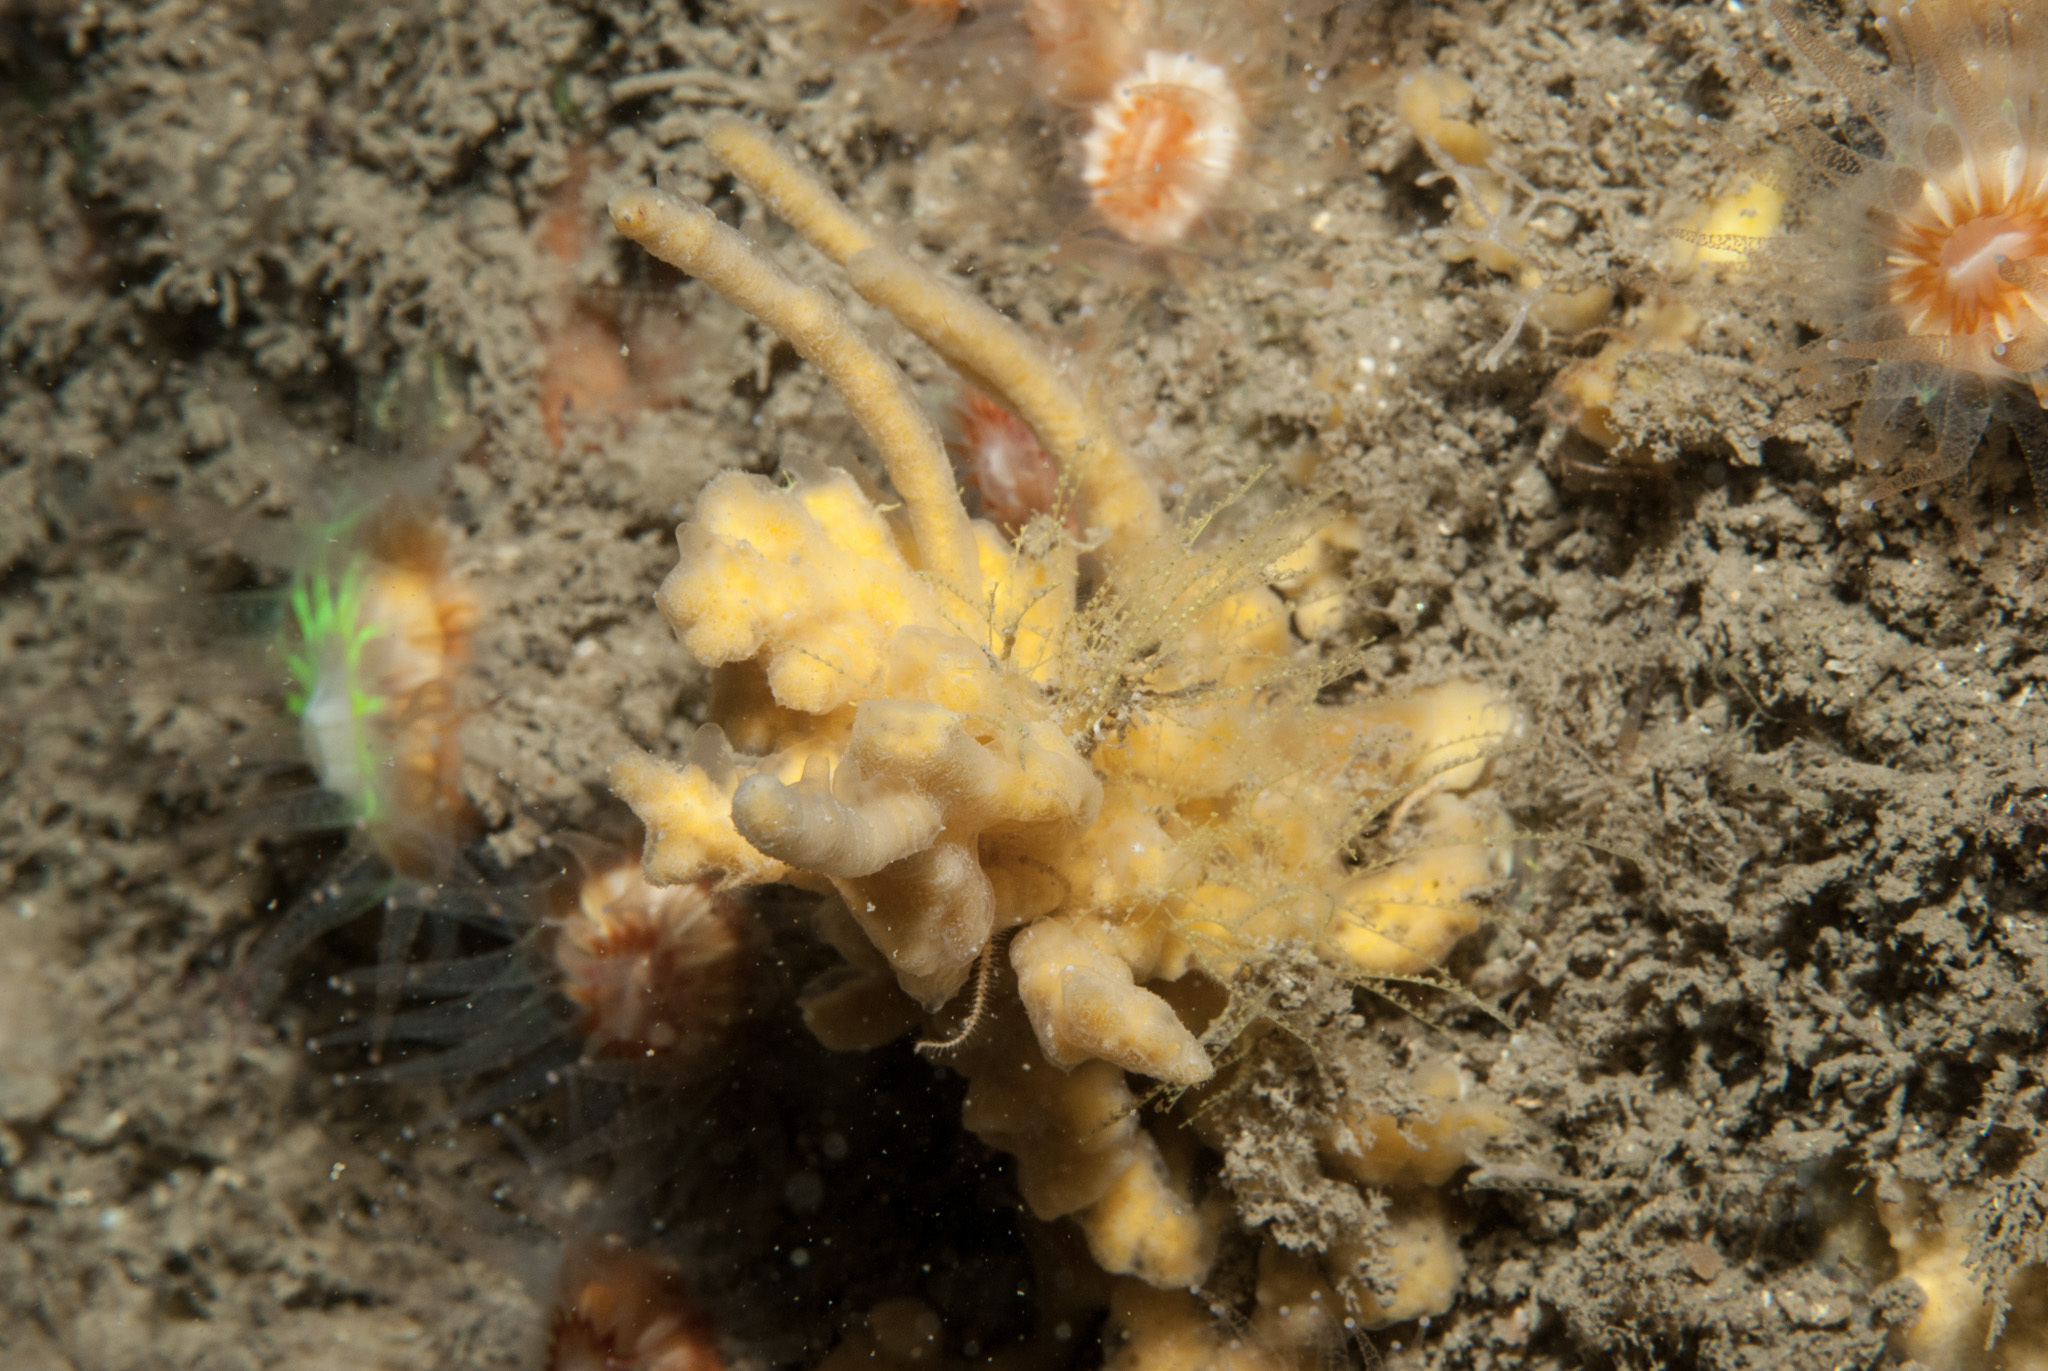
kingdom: Animalia
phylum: Porifera
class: Demospongiae
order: Poecilosclerida
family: Acarnidae
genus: Iophon
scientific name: Iophon hyndmani
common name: Hyndman's horny sponge
